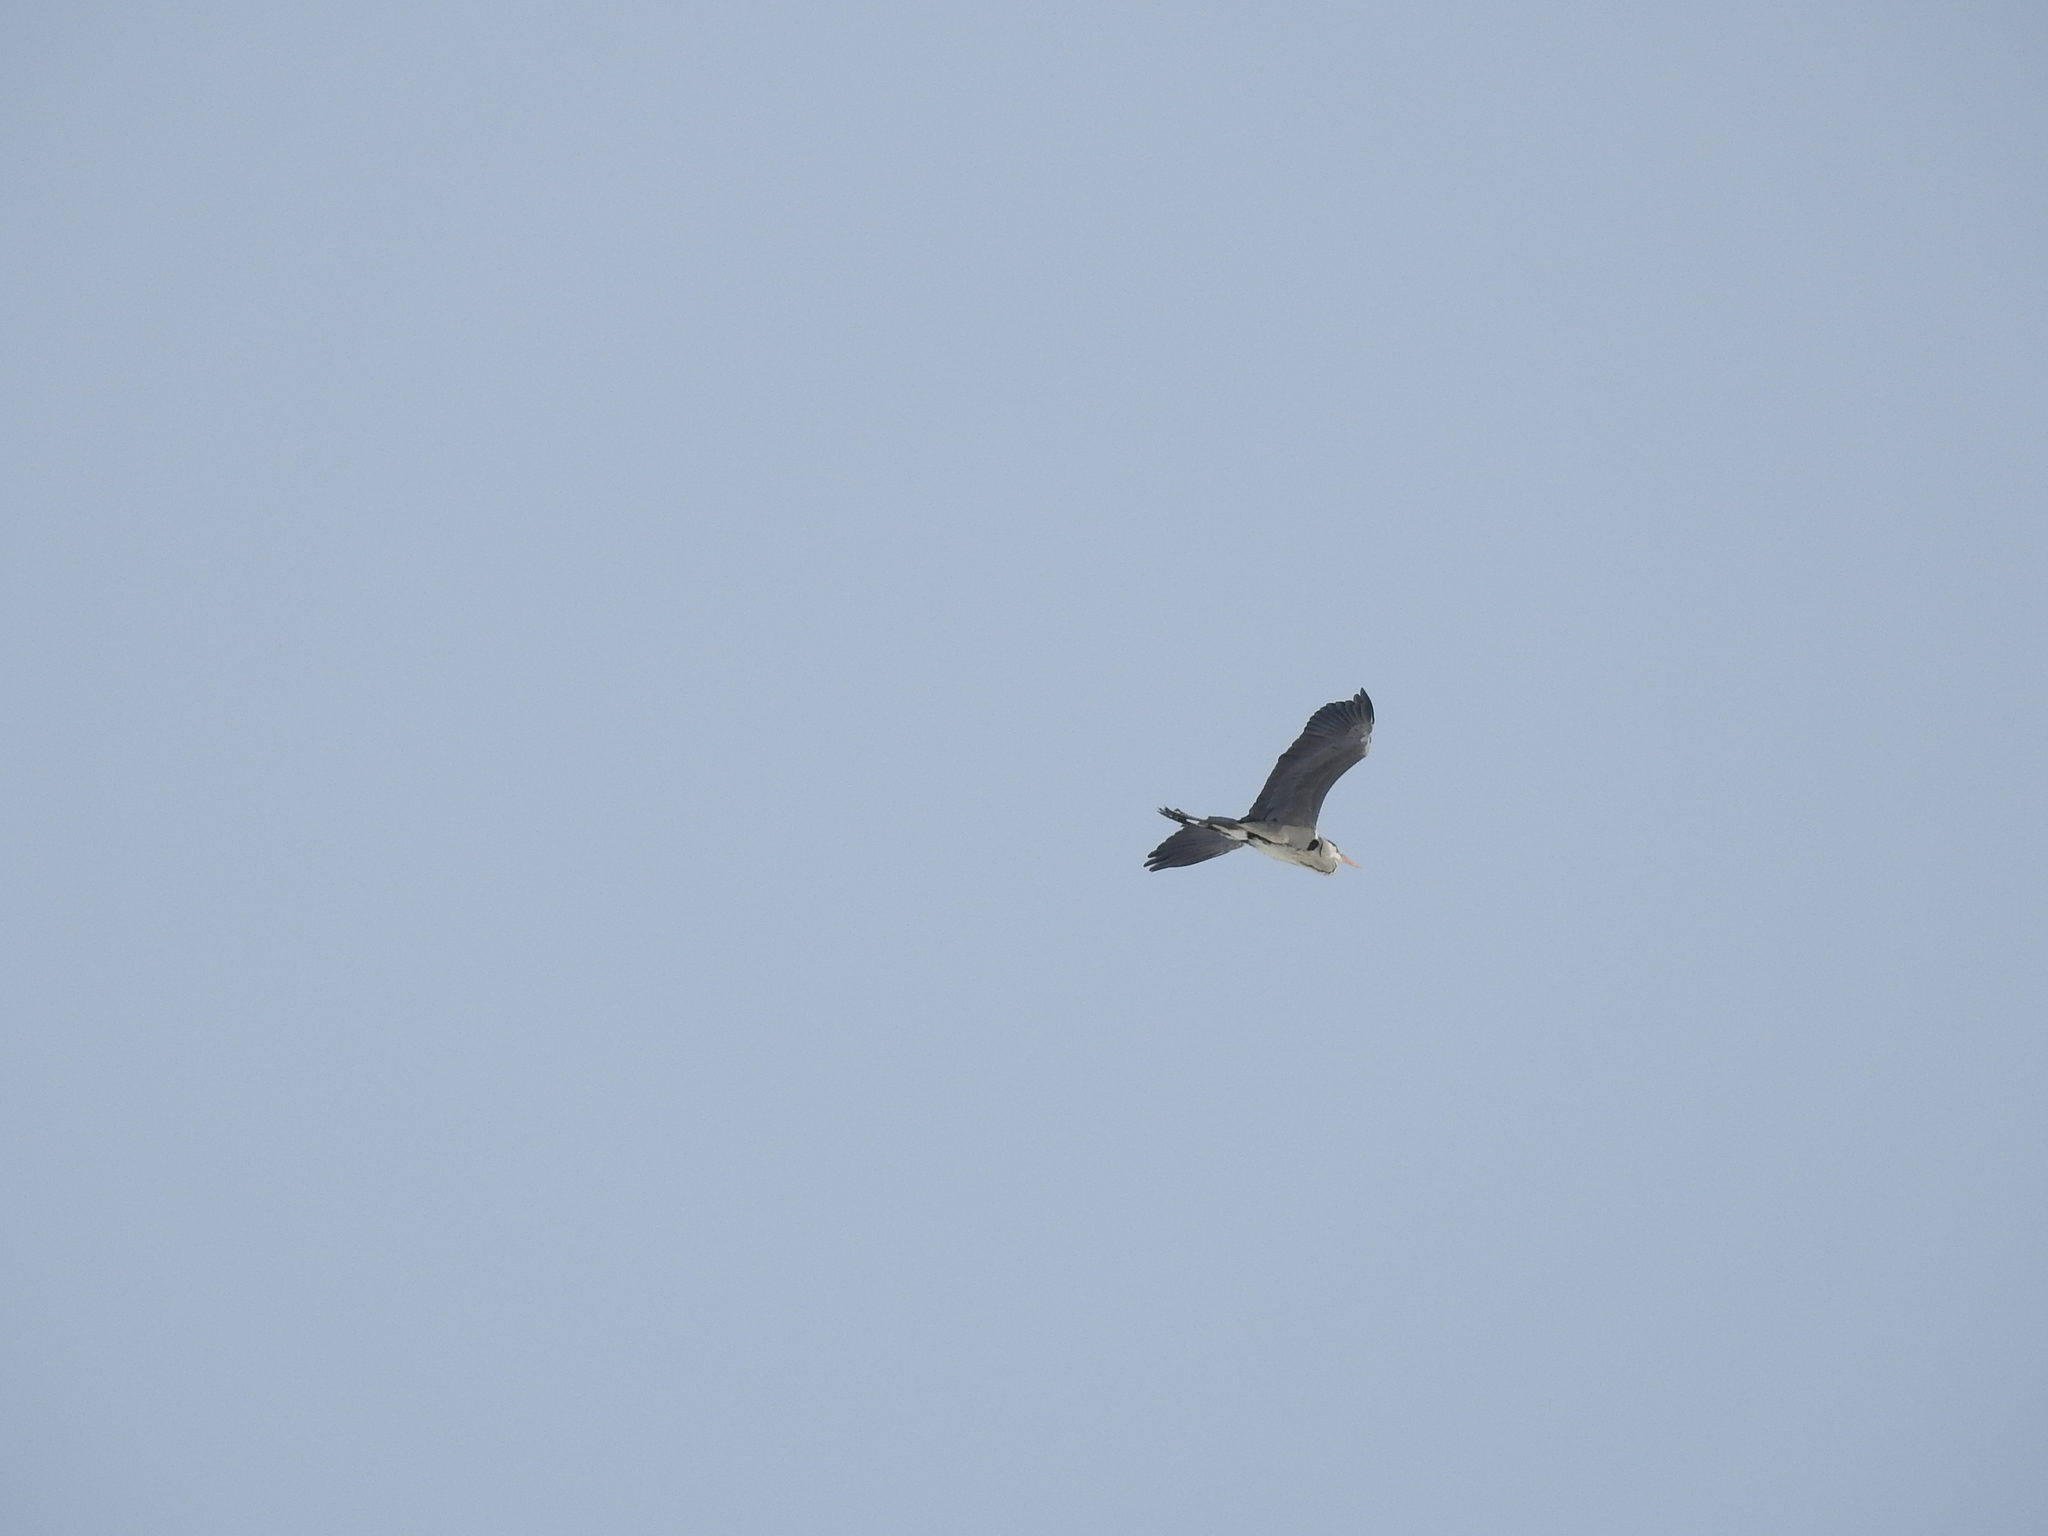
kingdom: Animalia
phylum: Chordata
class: Aves
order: Pelecaniformes
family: Ardeidae
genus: Ardea
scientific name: Ardea cinerea
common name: Grey heron
